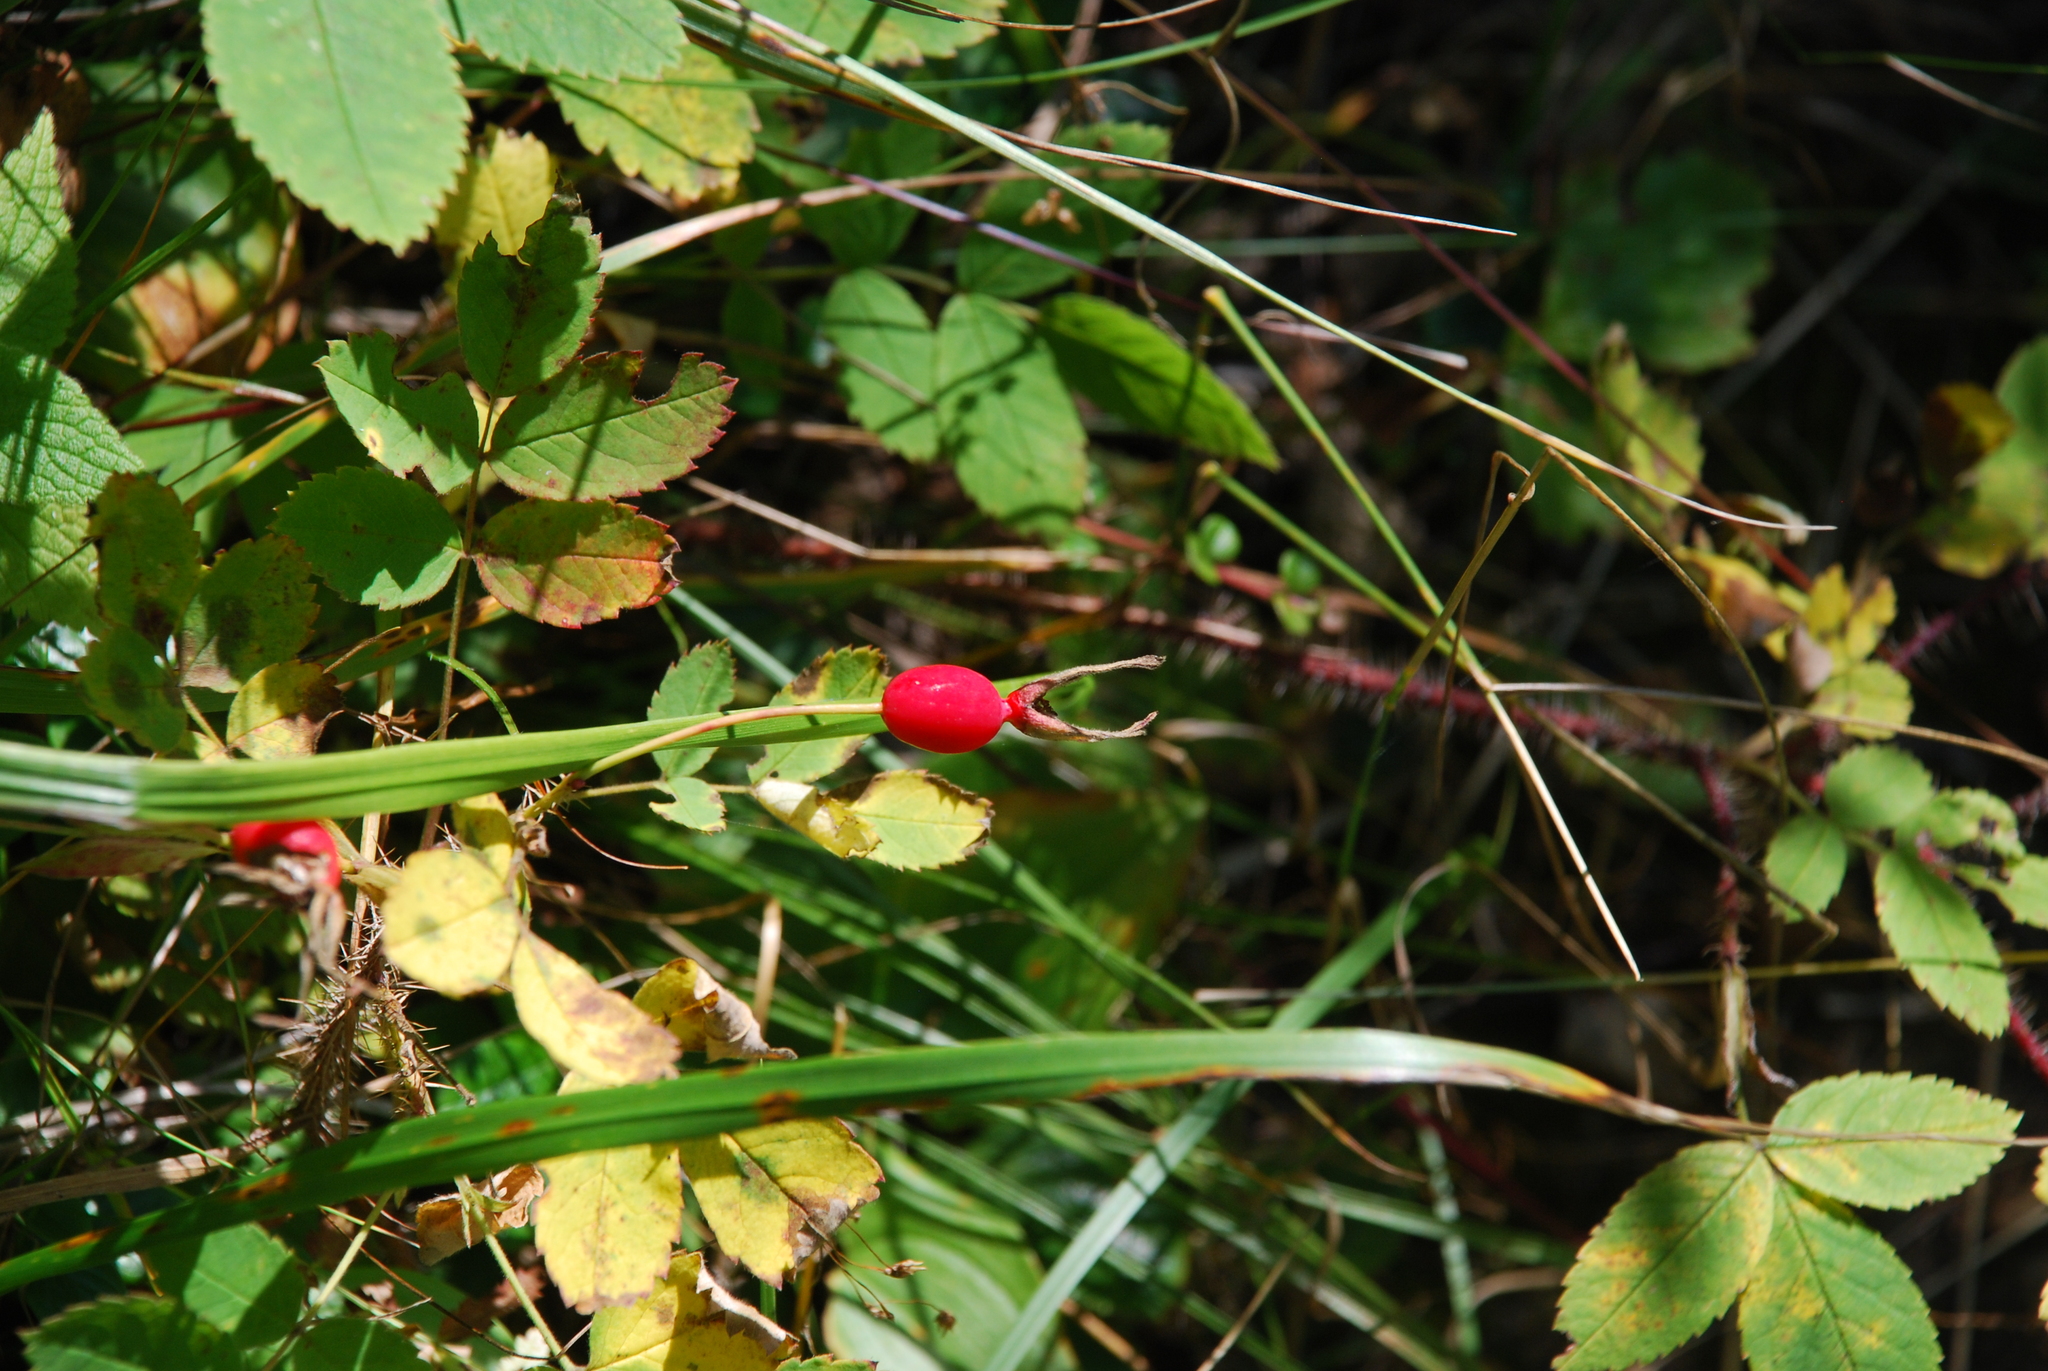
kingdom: Plantae
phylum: Tracheophyta
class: Magnoliopsida
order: Rosales
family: Rosaceae
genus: Rosa
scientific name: Rosa acicularis
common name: Prickly rose
